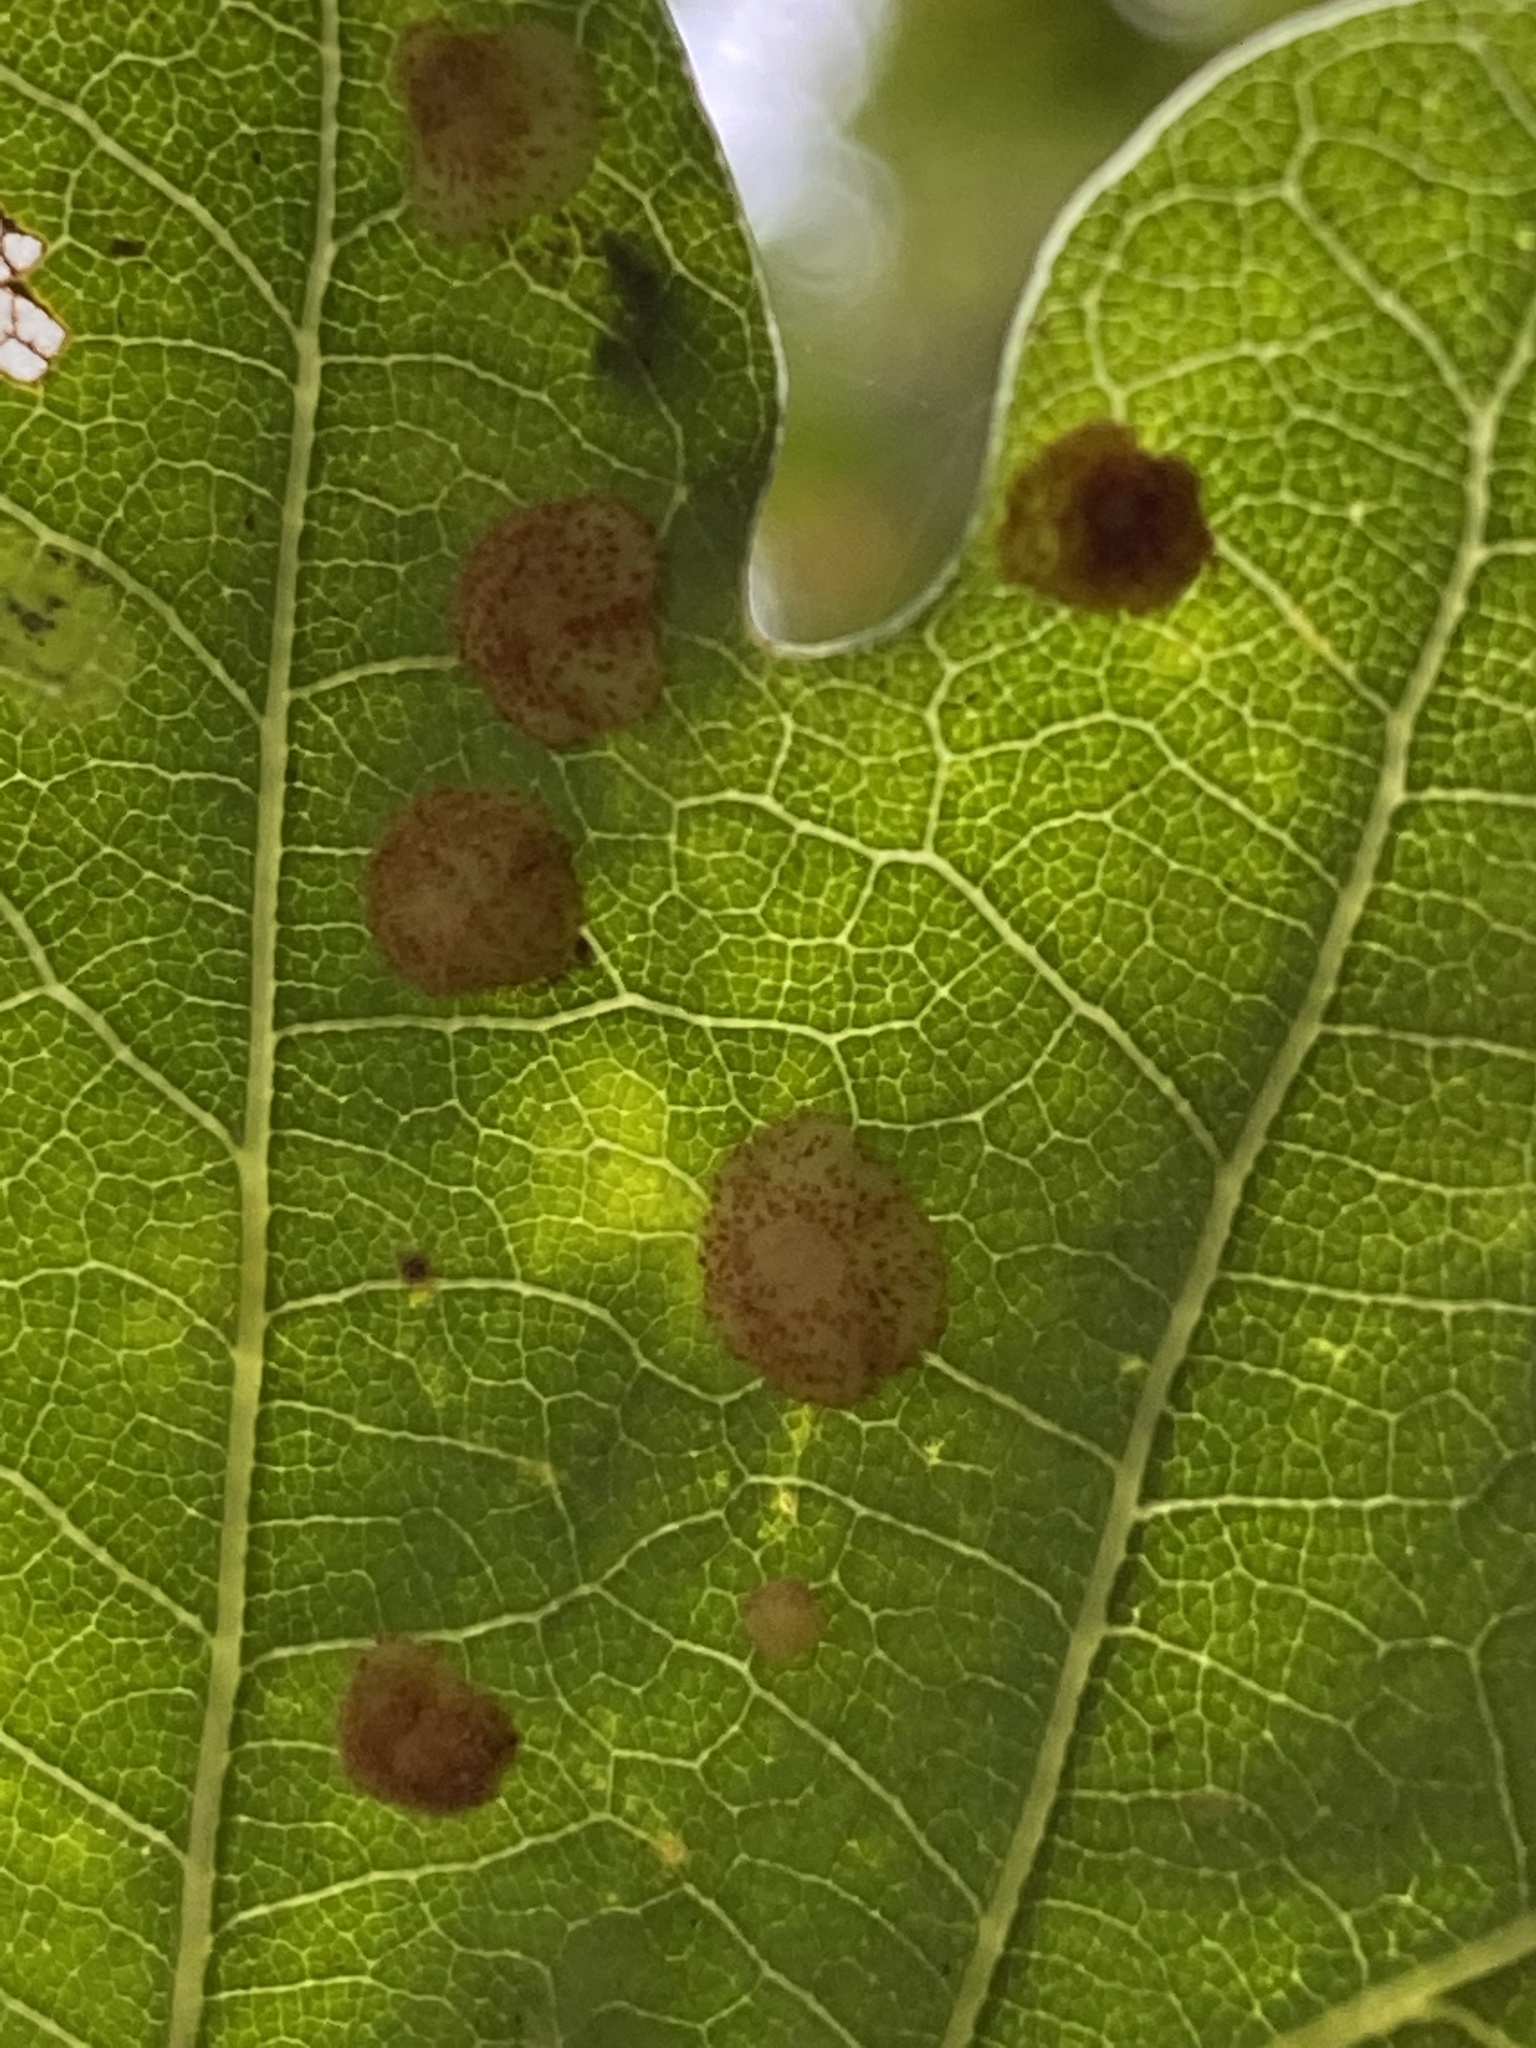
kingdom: Animalia
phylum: Arthropoda
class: Insecta
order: Hymenoptera
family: Cynipidae
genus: Neuroterus
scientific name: Neuroterus quercusbaccarum
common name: Common spangle gall
